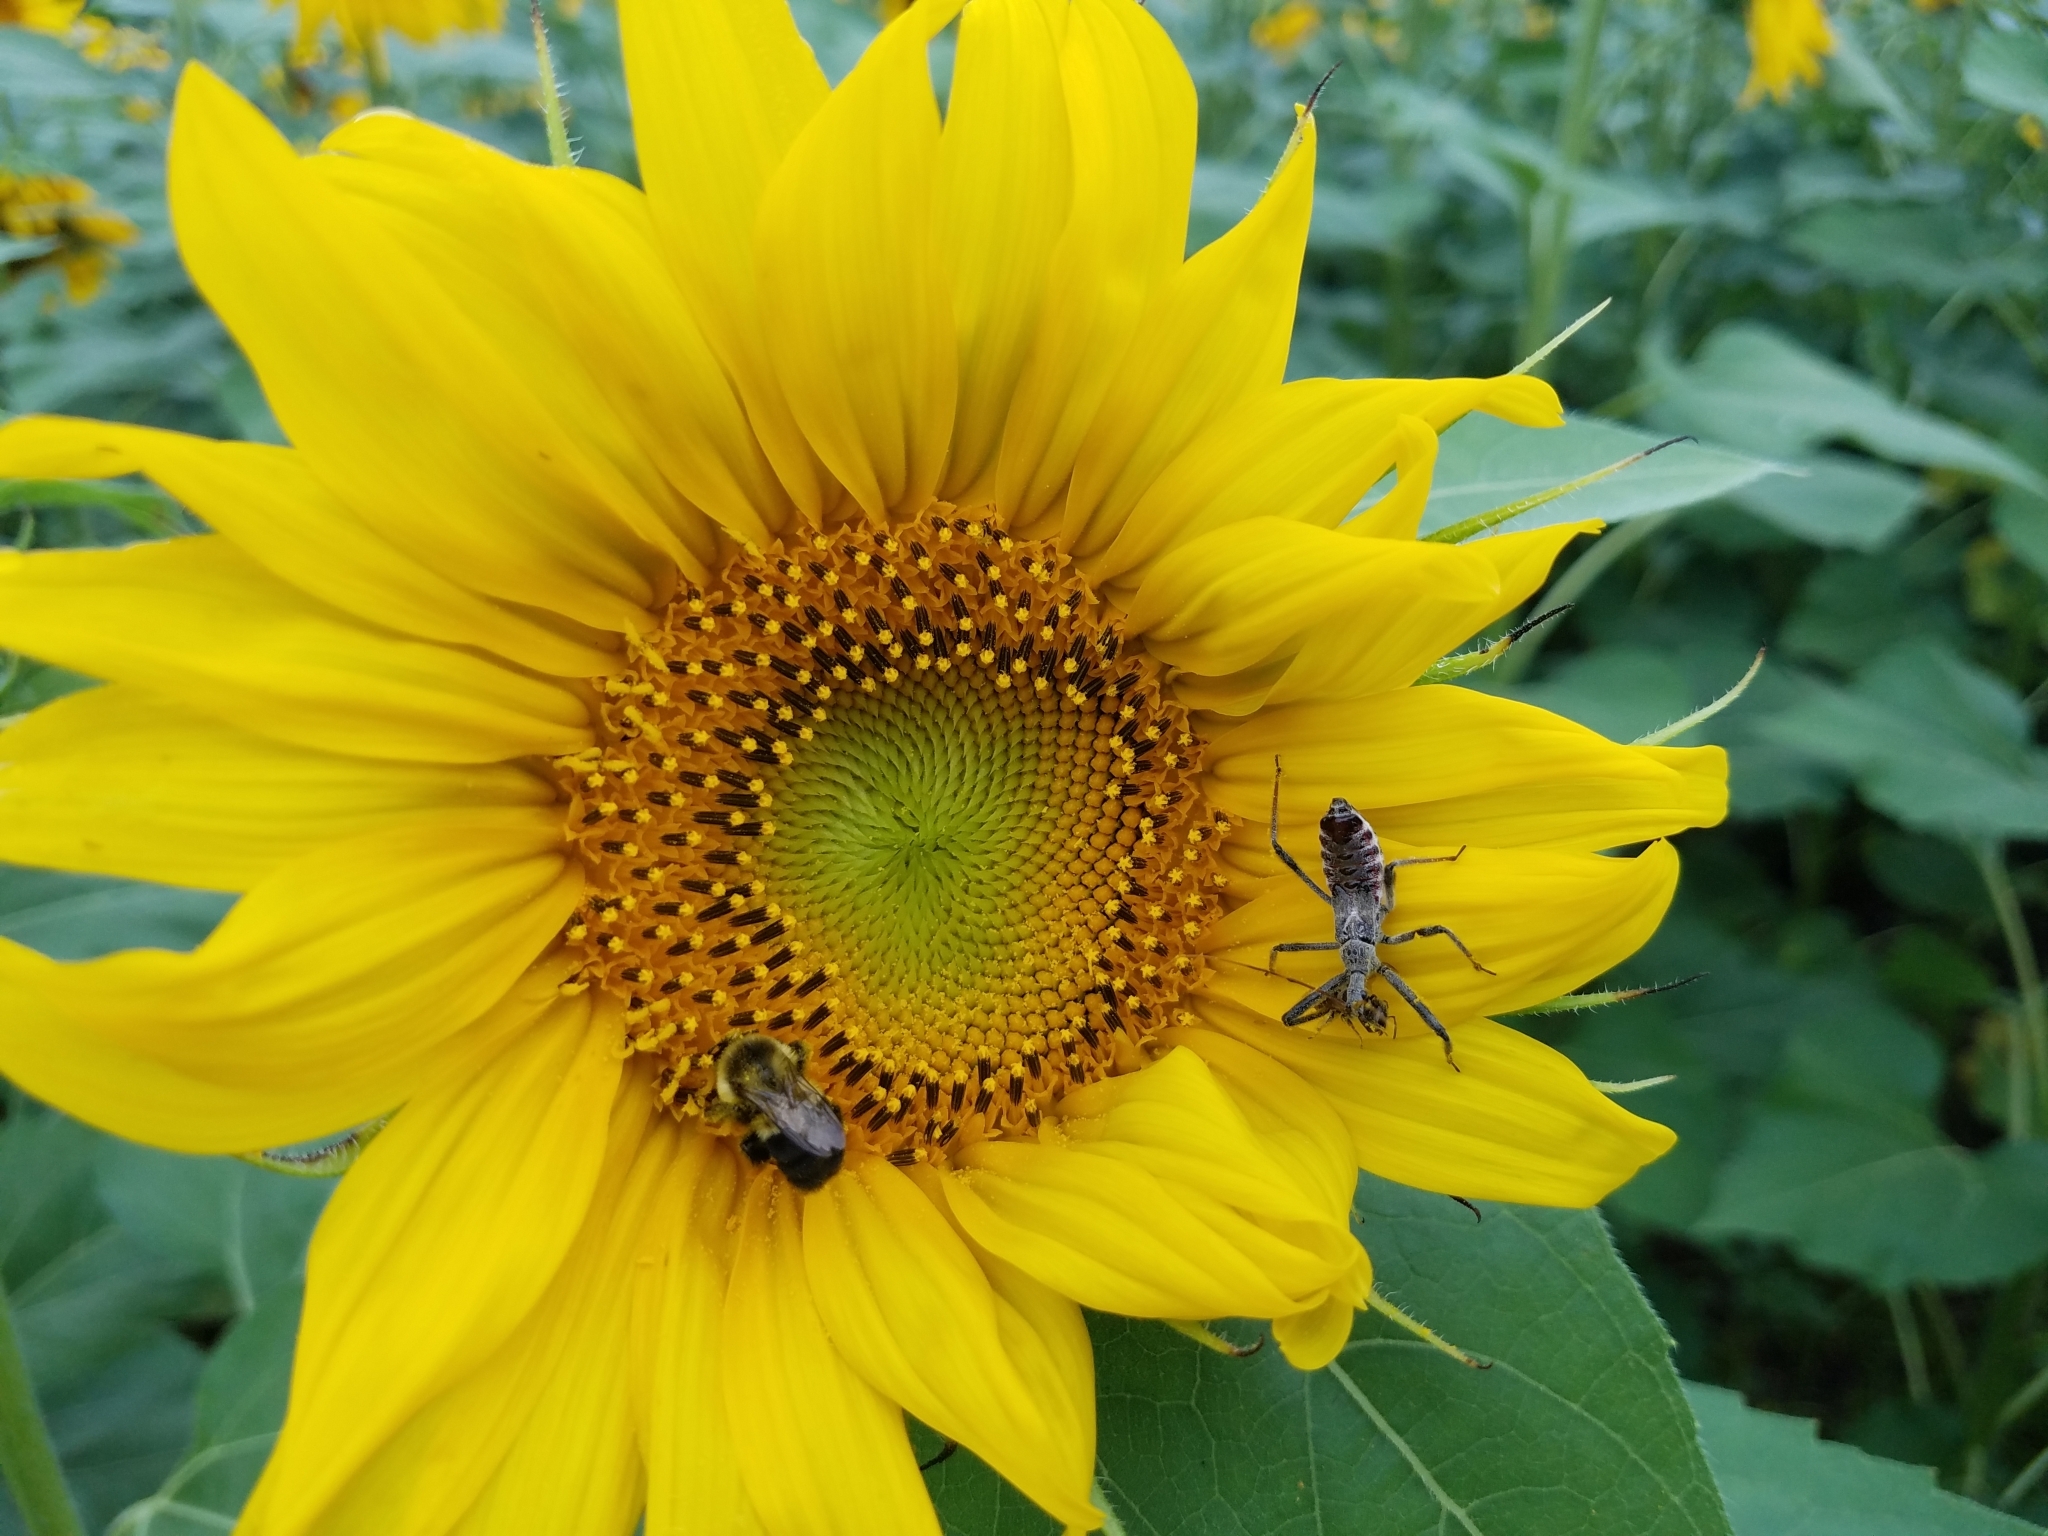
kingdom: Animalia
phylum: Arthropoda
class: Insecta
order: Hemiptera
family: Reduviidae
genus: Arilus
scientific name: Arilus cristatus
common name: North american wheel bug
